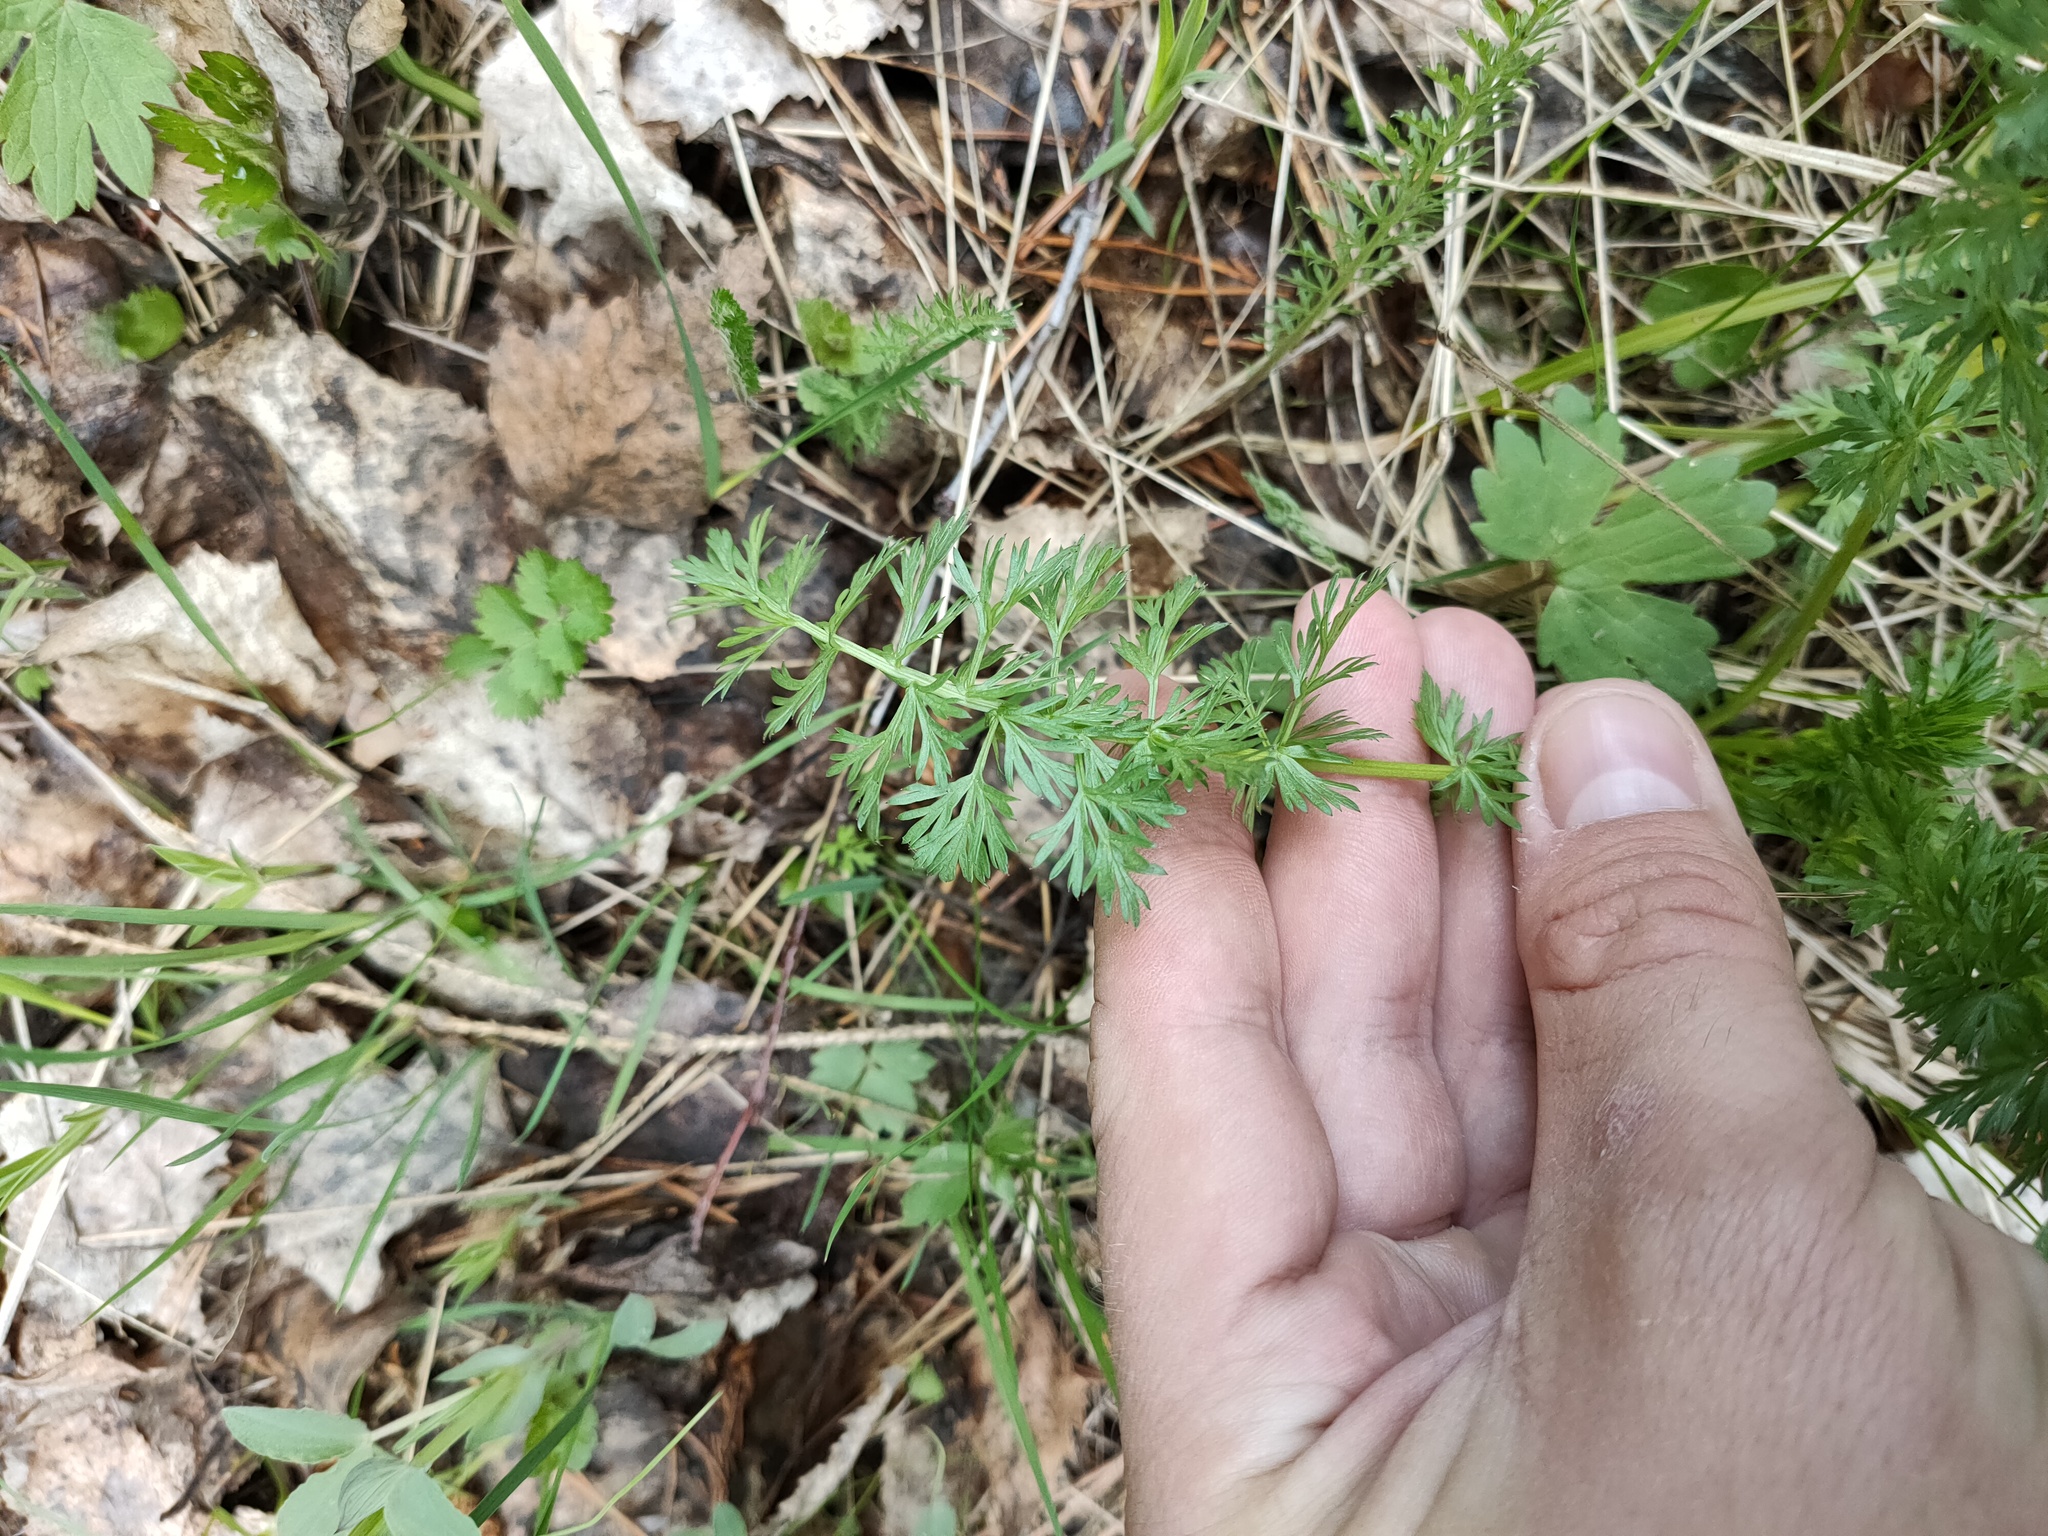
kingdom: Plantae
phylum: Tracheophyta
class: Magnoliopsida
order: Apiales
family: Apiaceae
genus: Carum
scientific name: Carum carvi
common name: Caraway
